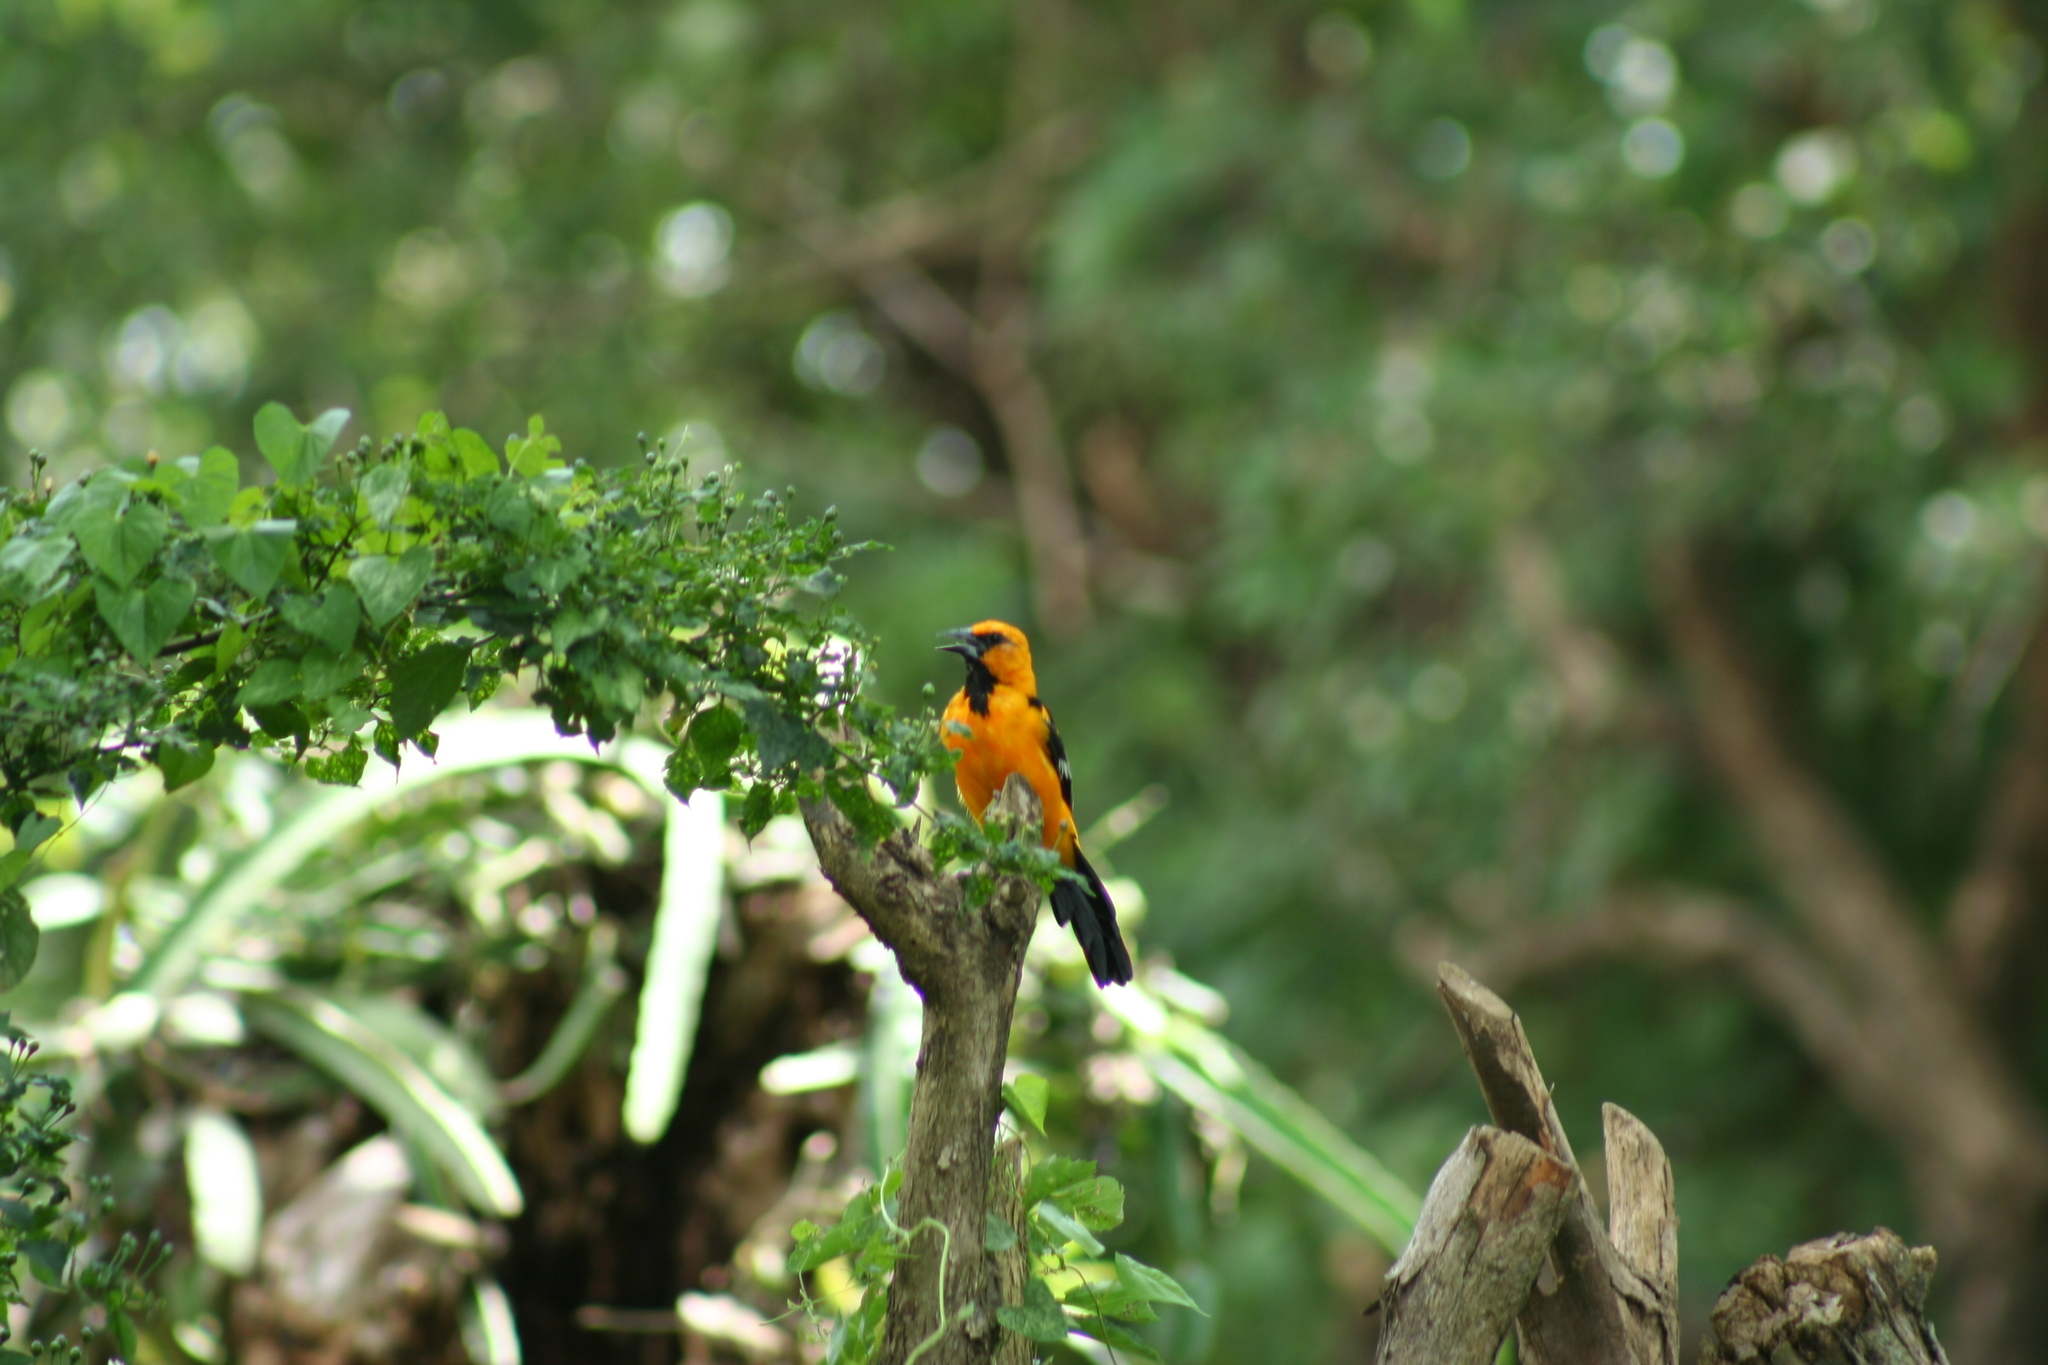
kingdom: Animalia
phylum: Chordata
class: Aves
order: Passeriformes
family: Icteridae
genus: Icterus
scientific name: Icterus gularis
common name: Altamira oriole
